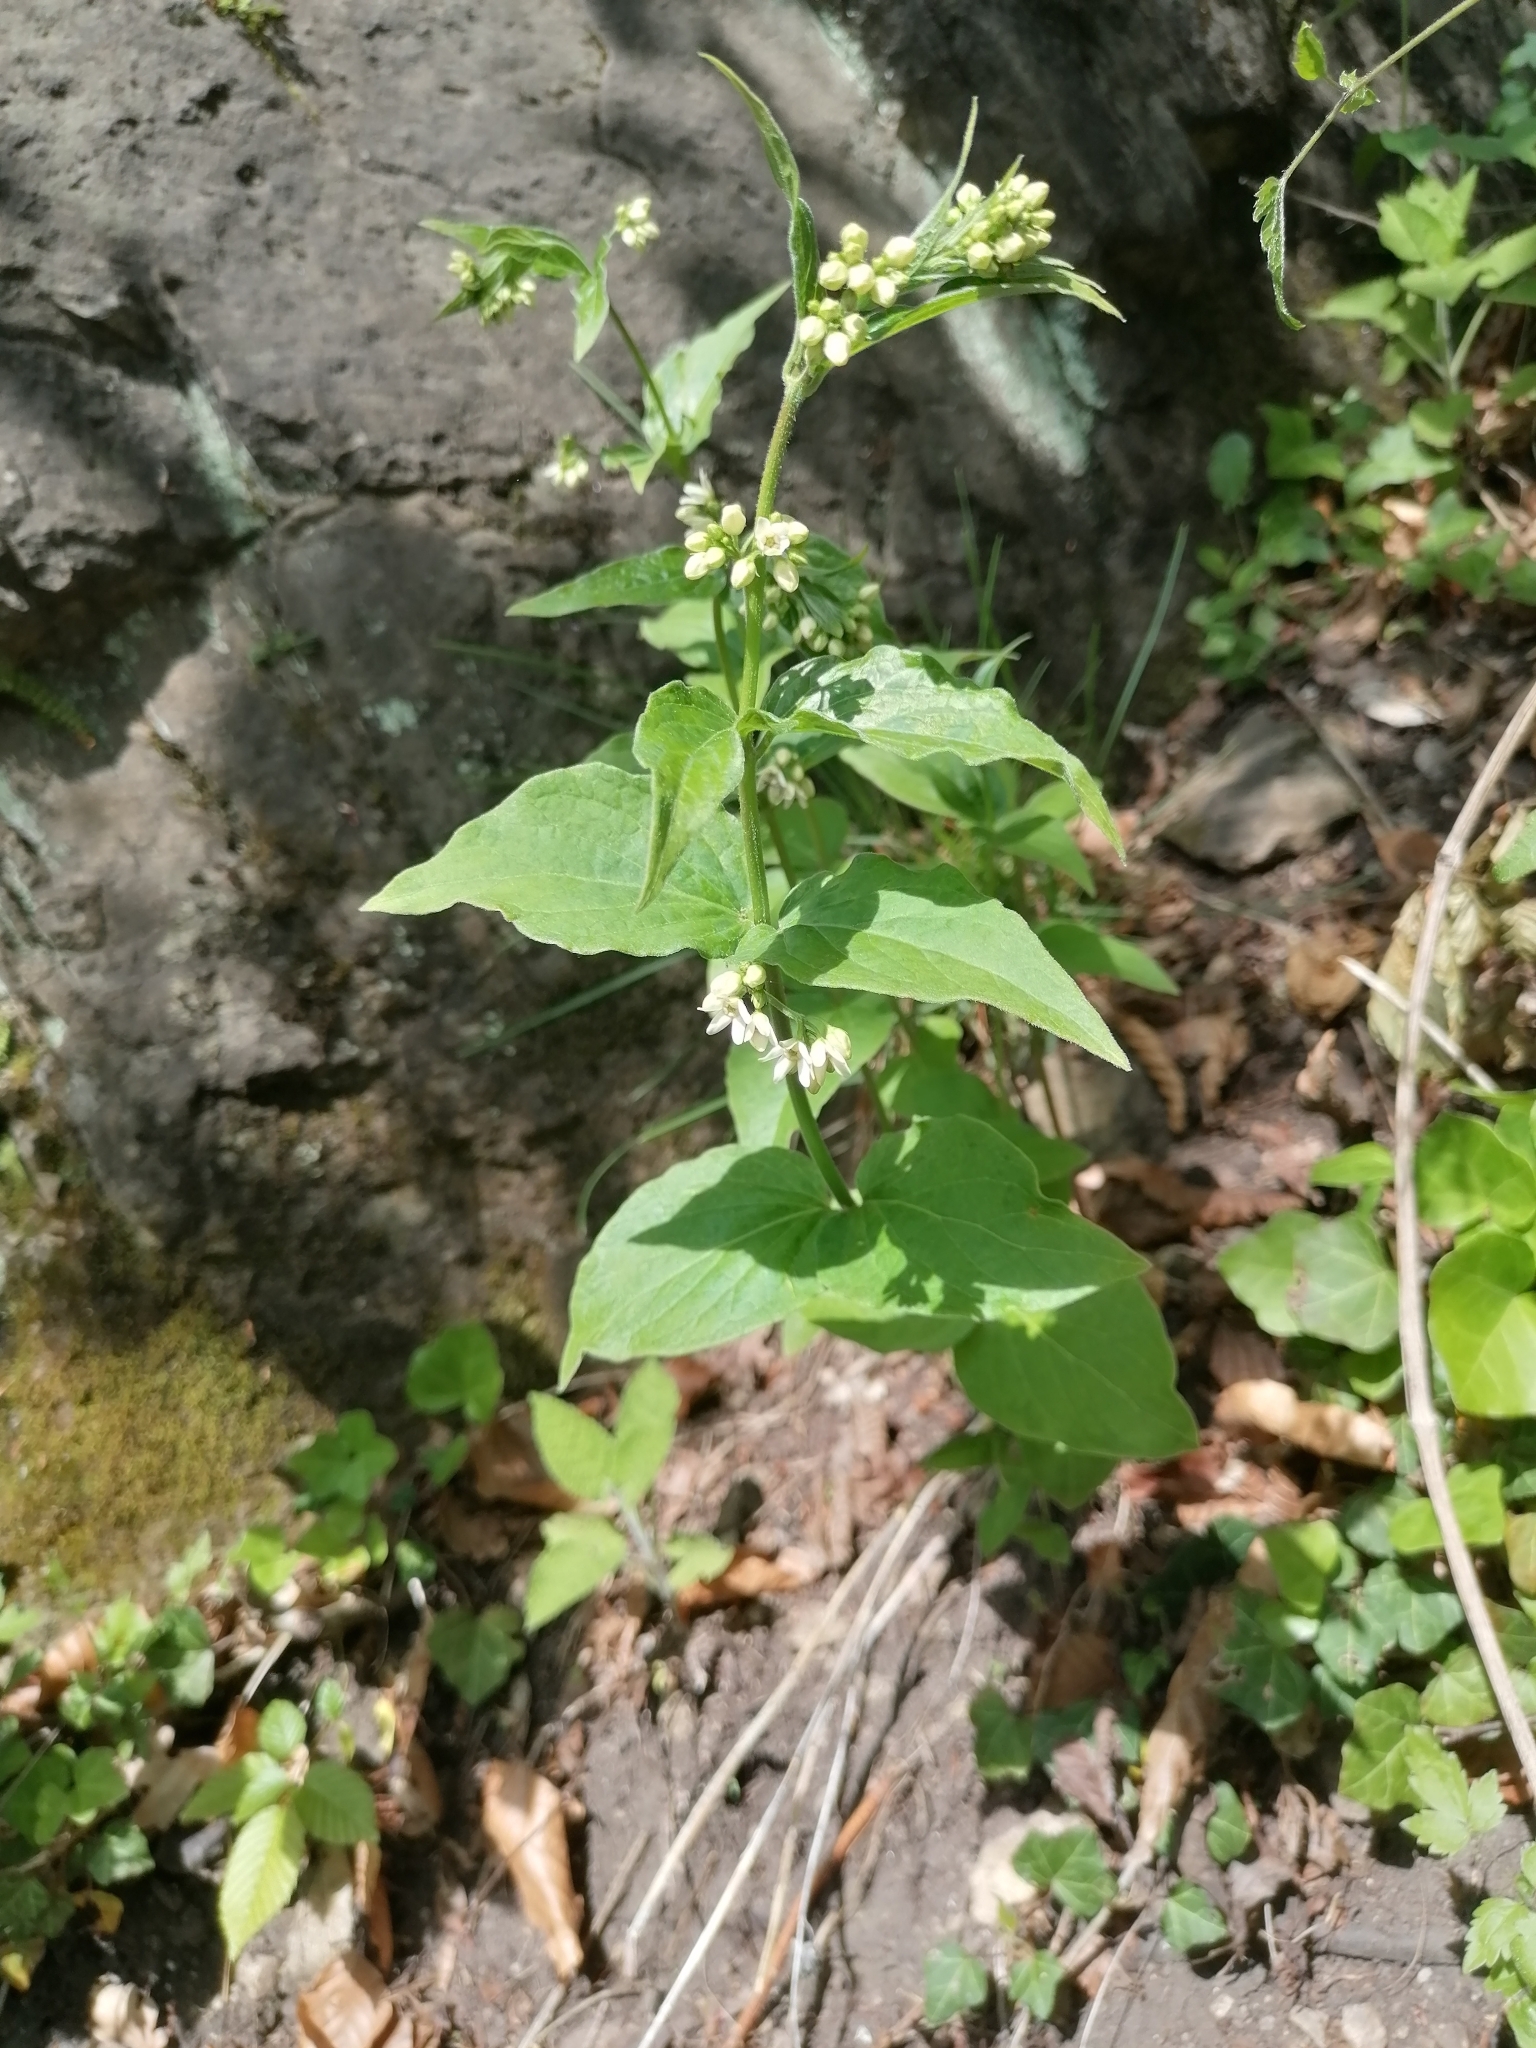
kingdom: Plantae
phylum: Tracheophyta
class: Magnoliopsida
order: Gentianales
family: Apocynaceae
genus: Vincetoxicum
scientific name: Vincetoxicum hirundinaria
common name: White swallowwort
